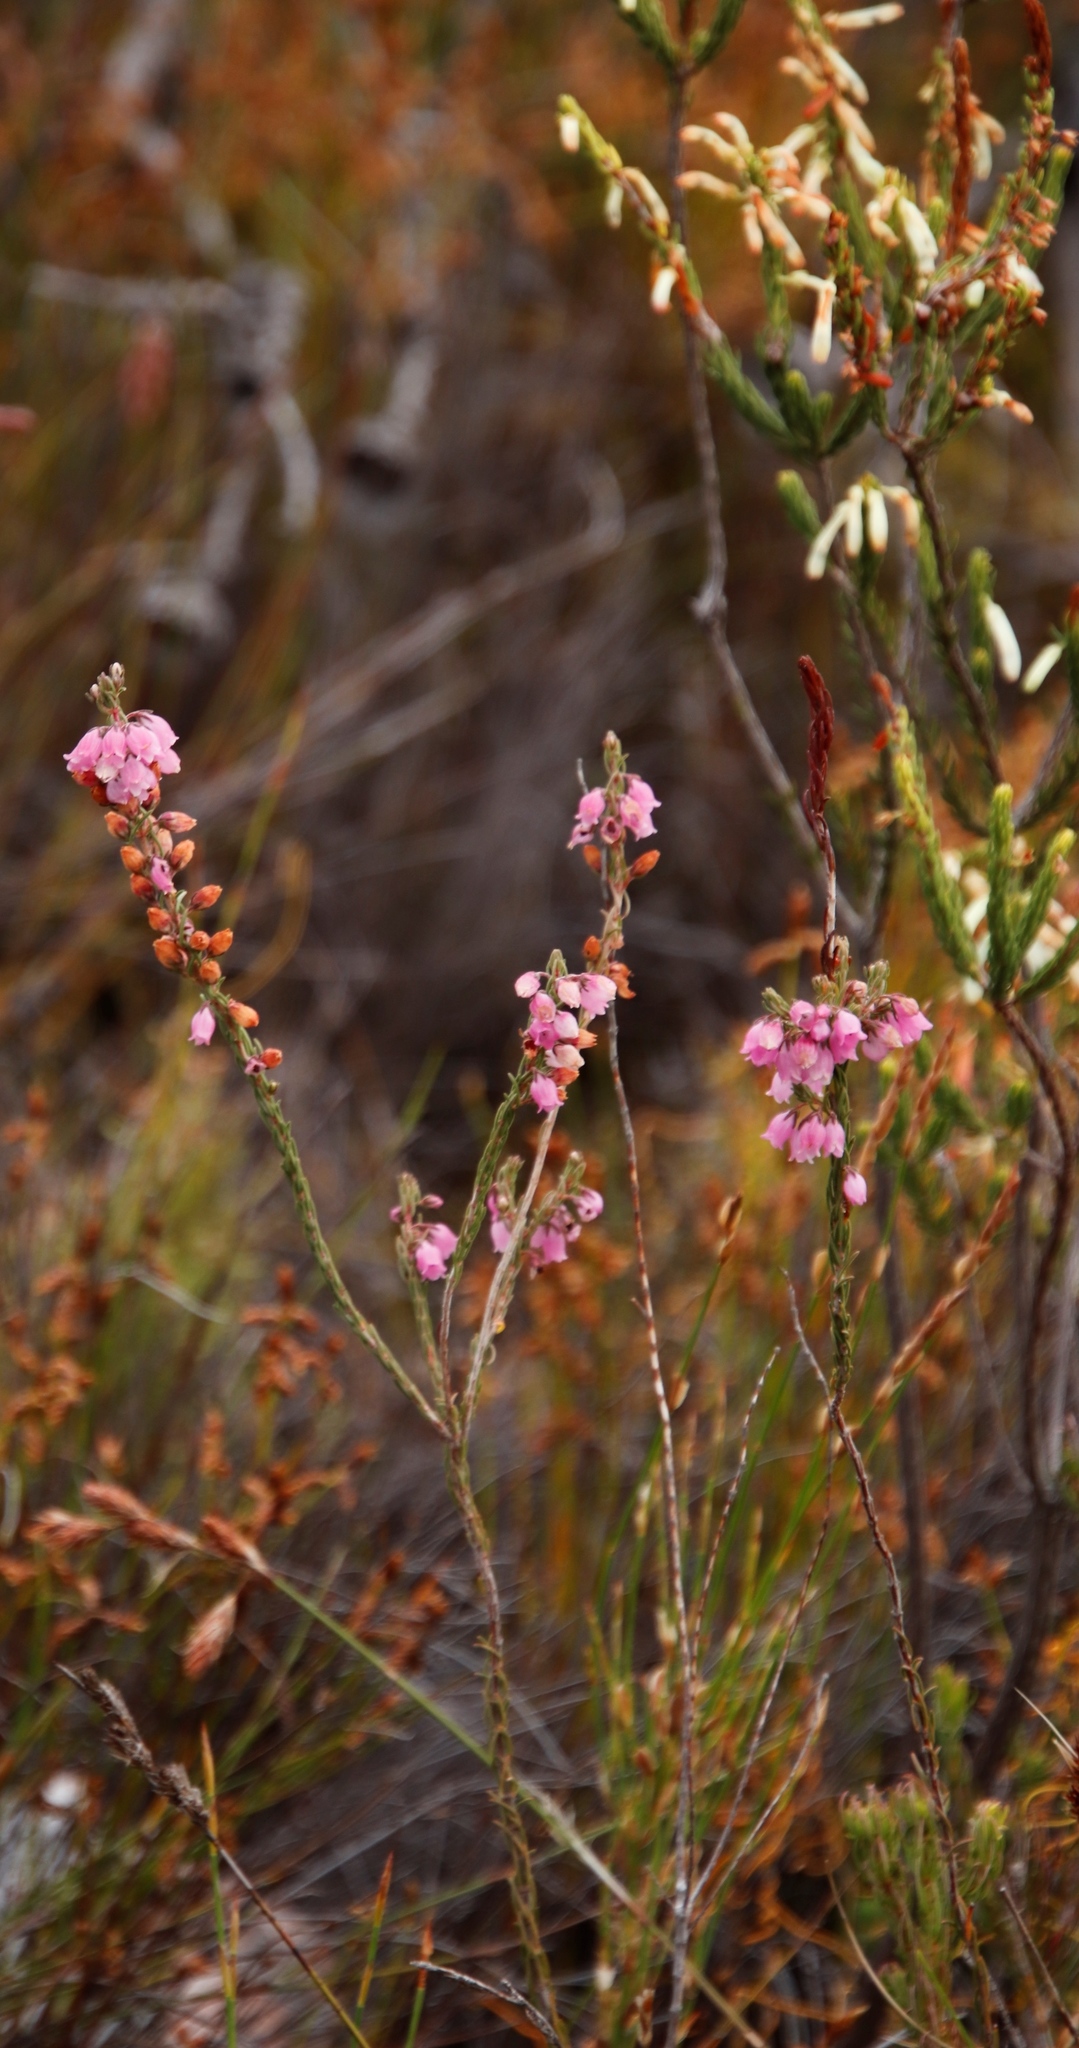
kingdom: Plantae
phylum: Tracheophyta
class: Magnoliopsida
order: Ericales
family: Ericaceae
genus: Erica
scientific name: Erica viscaria
